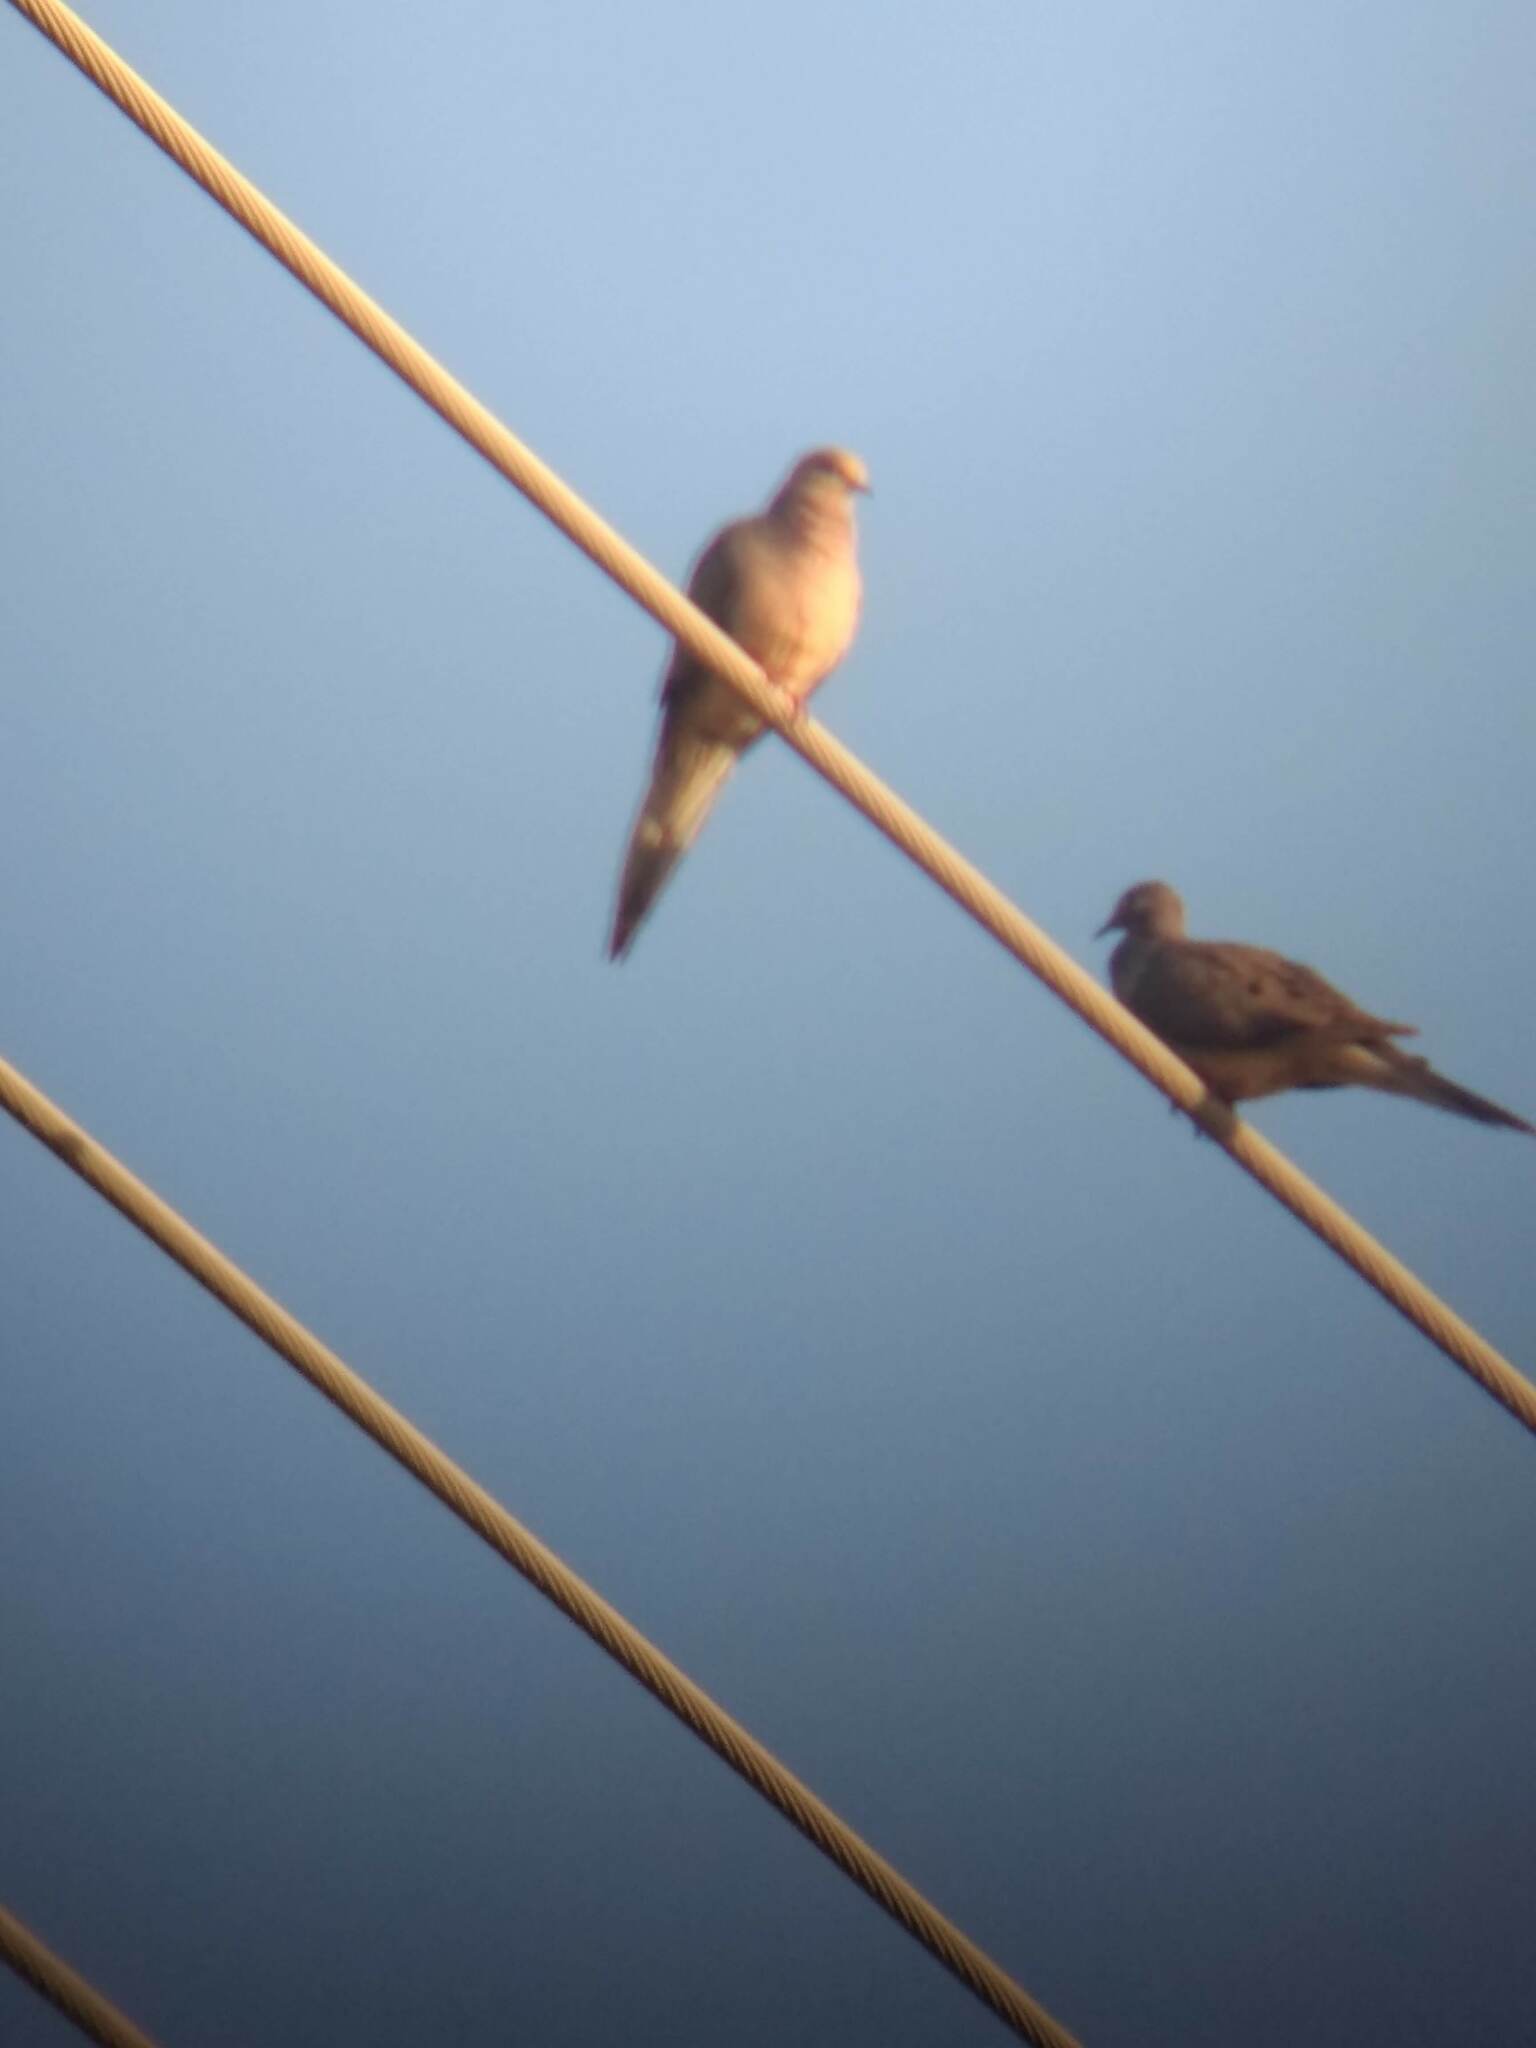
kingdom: Animalia
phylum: Chordata
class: Aves
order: Columbiformes
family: Columbidae
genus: Zenaida
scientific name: Zenaida macroura
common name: Mourning dove
